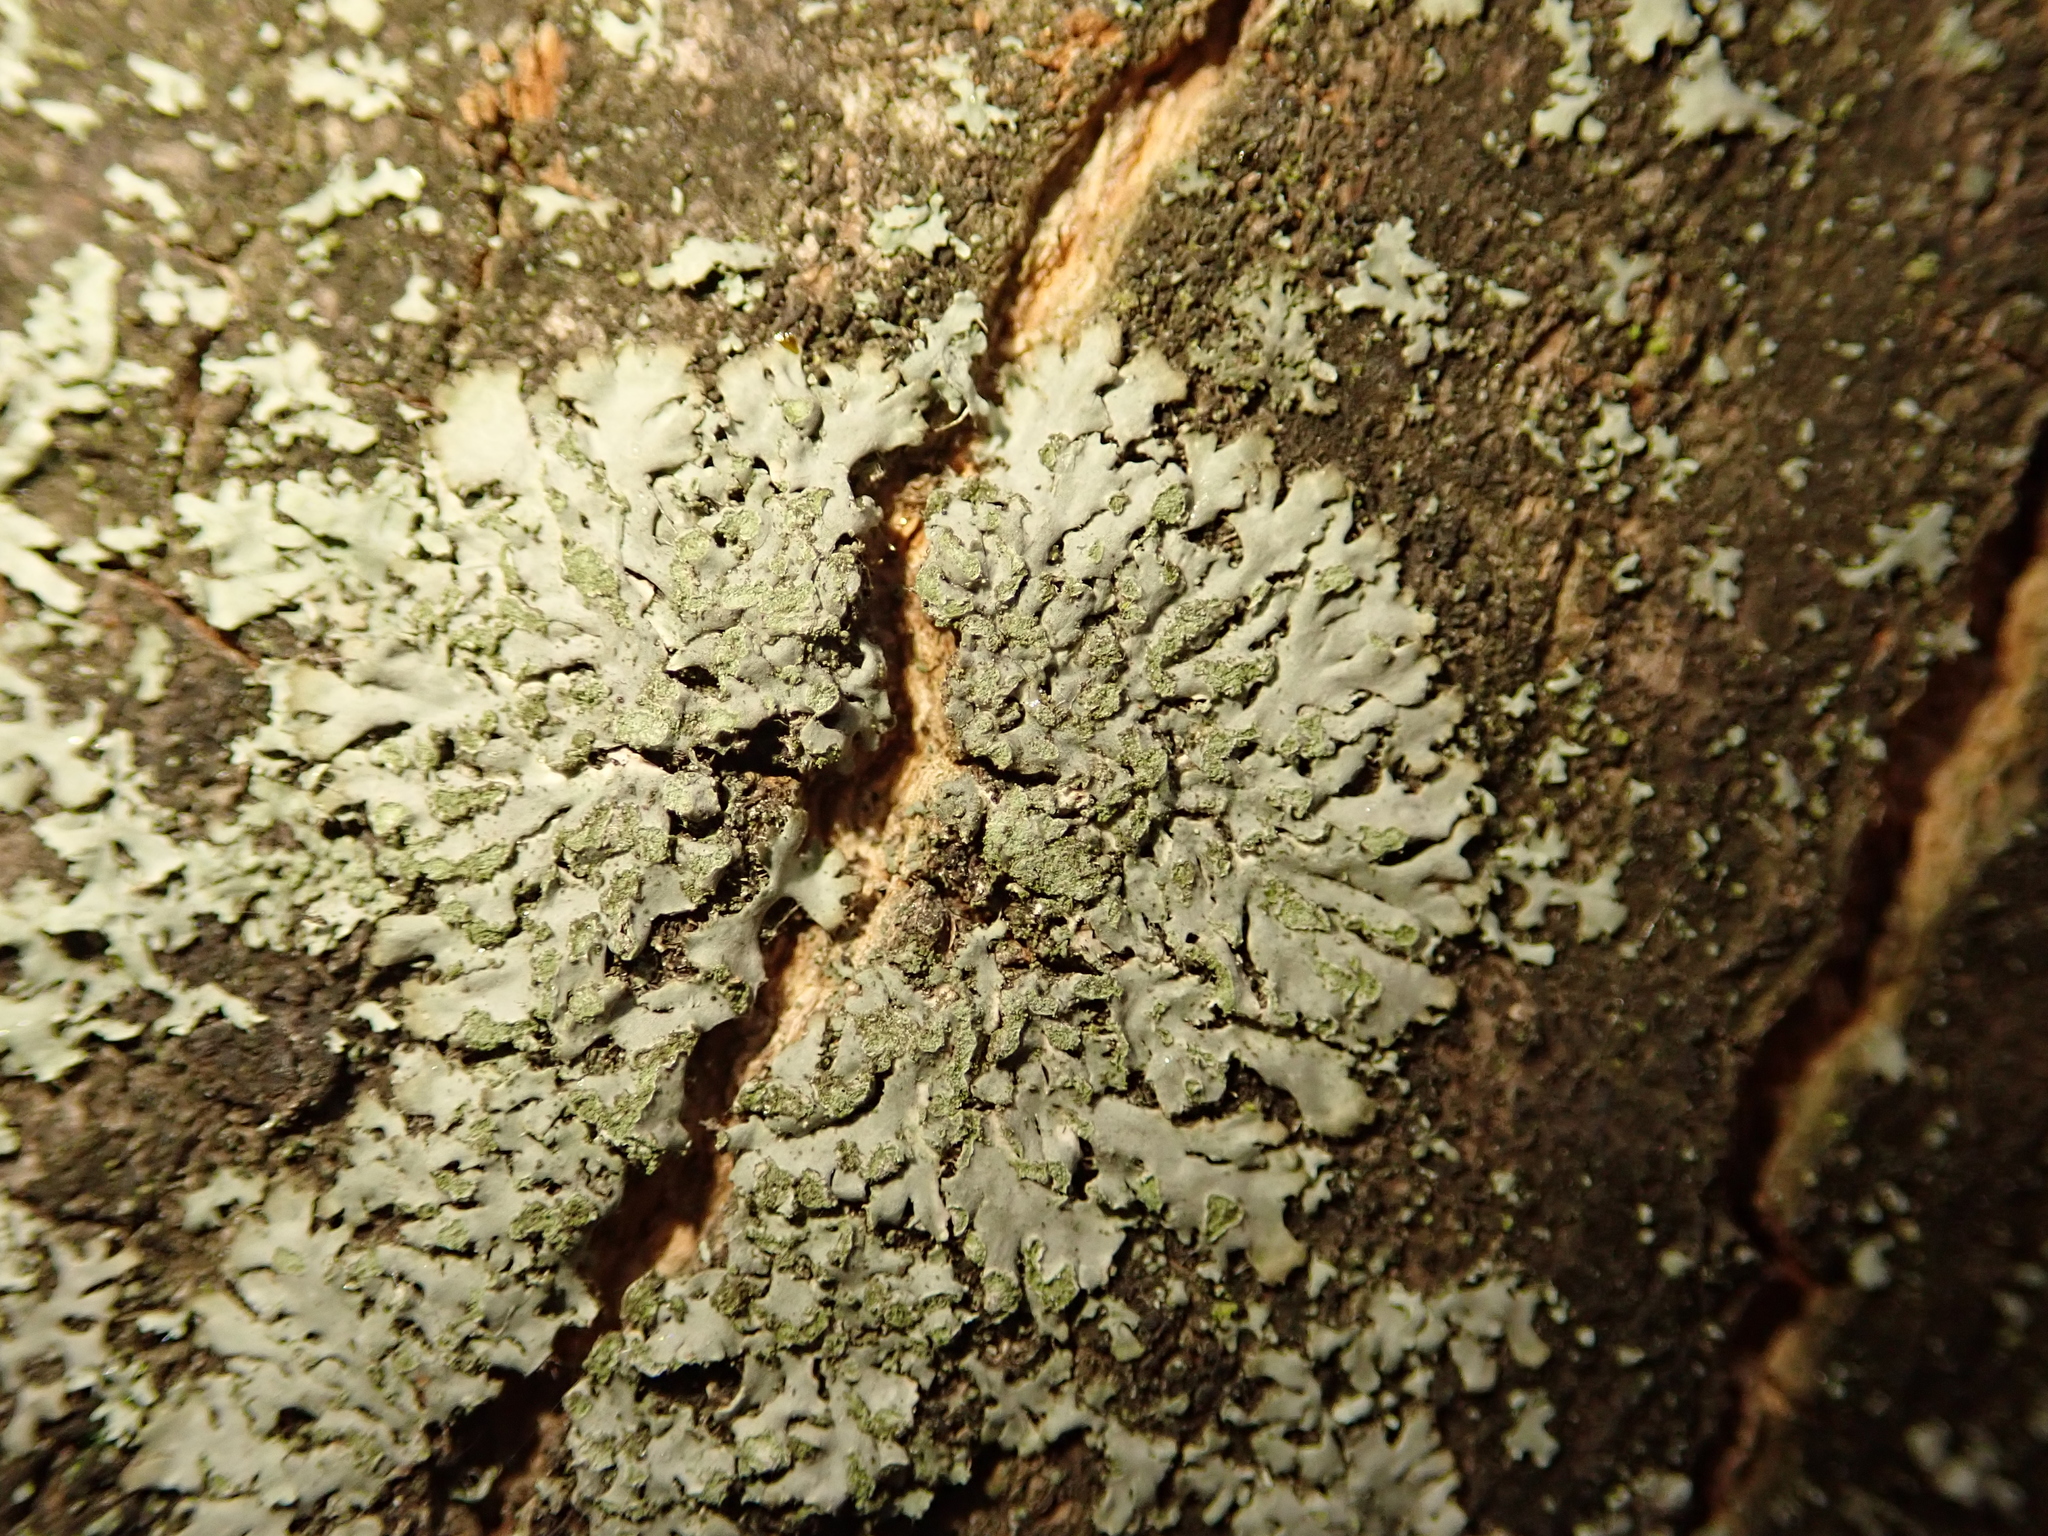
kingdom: Fungi
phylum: Ascomycota
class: Lecanoromycetes
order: Caliciales
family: Physciaceae
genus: Phaeophyscia
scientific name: Phaeophyscia orbicularis
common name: Mealy shadow lichen
